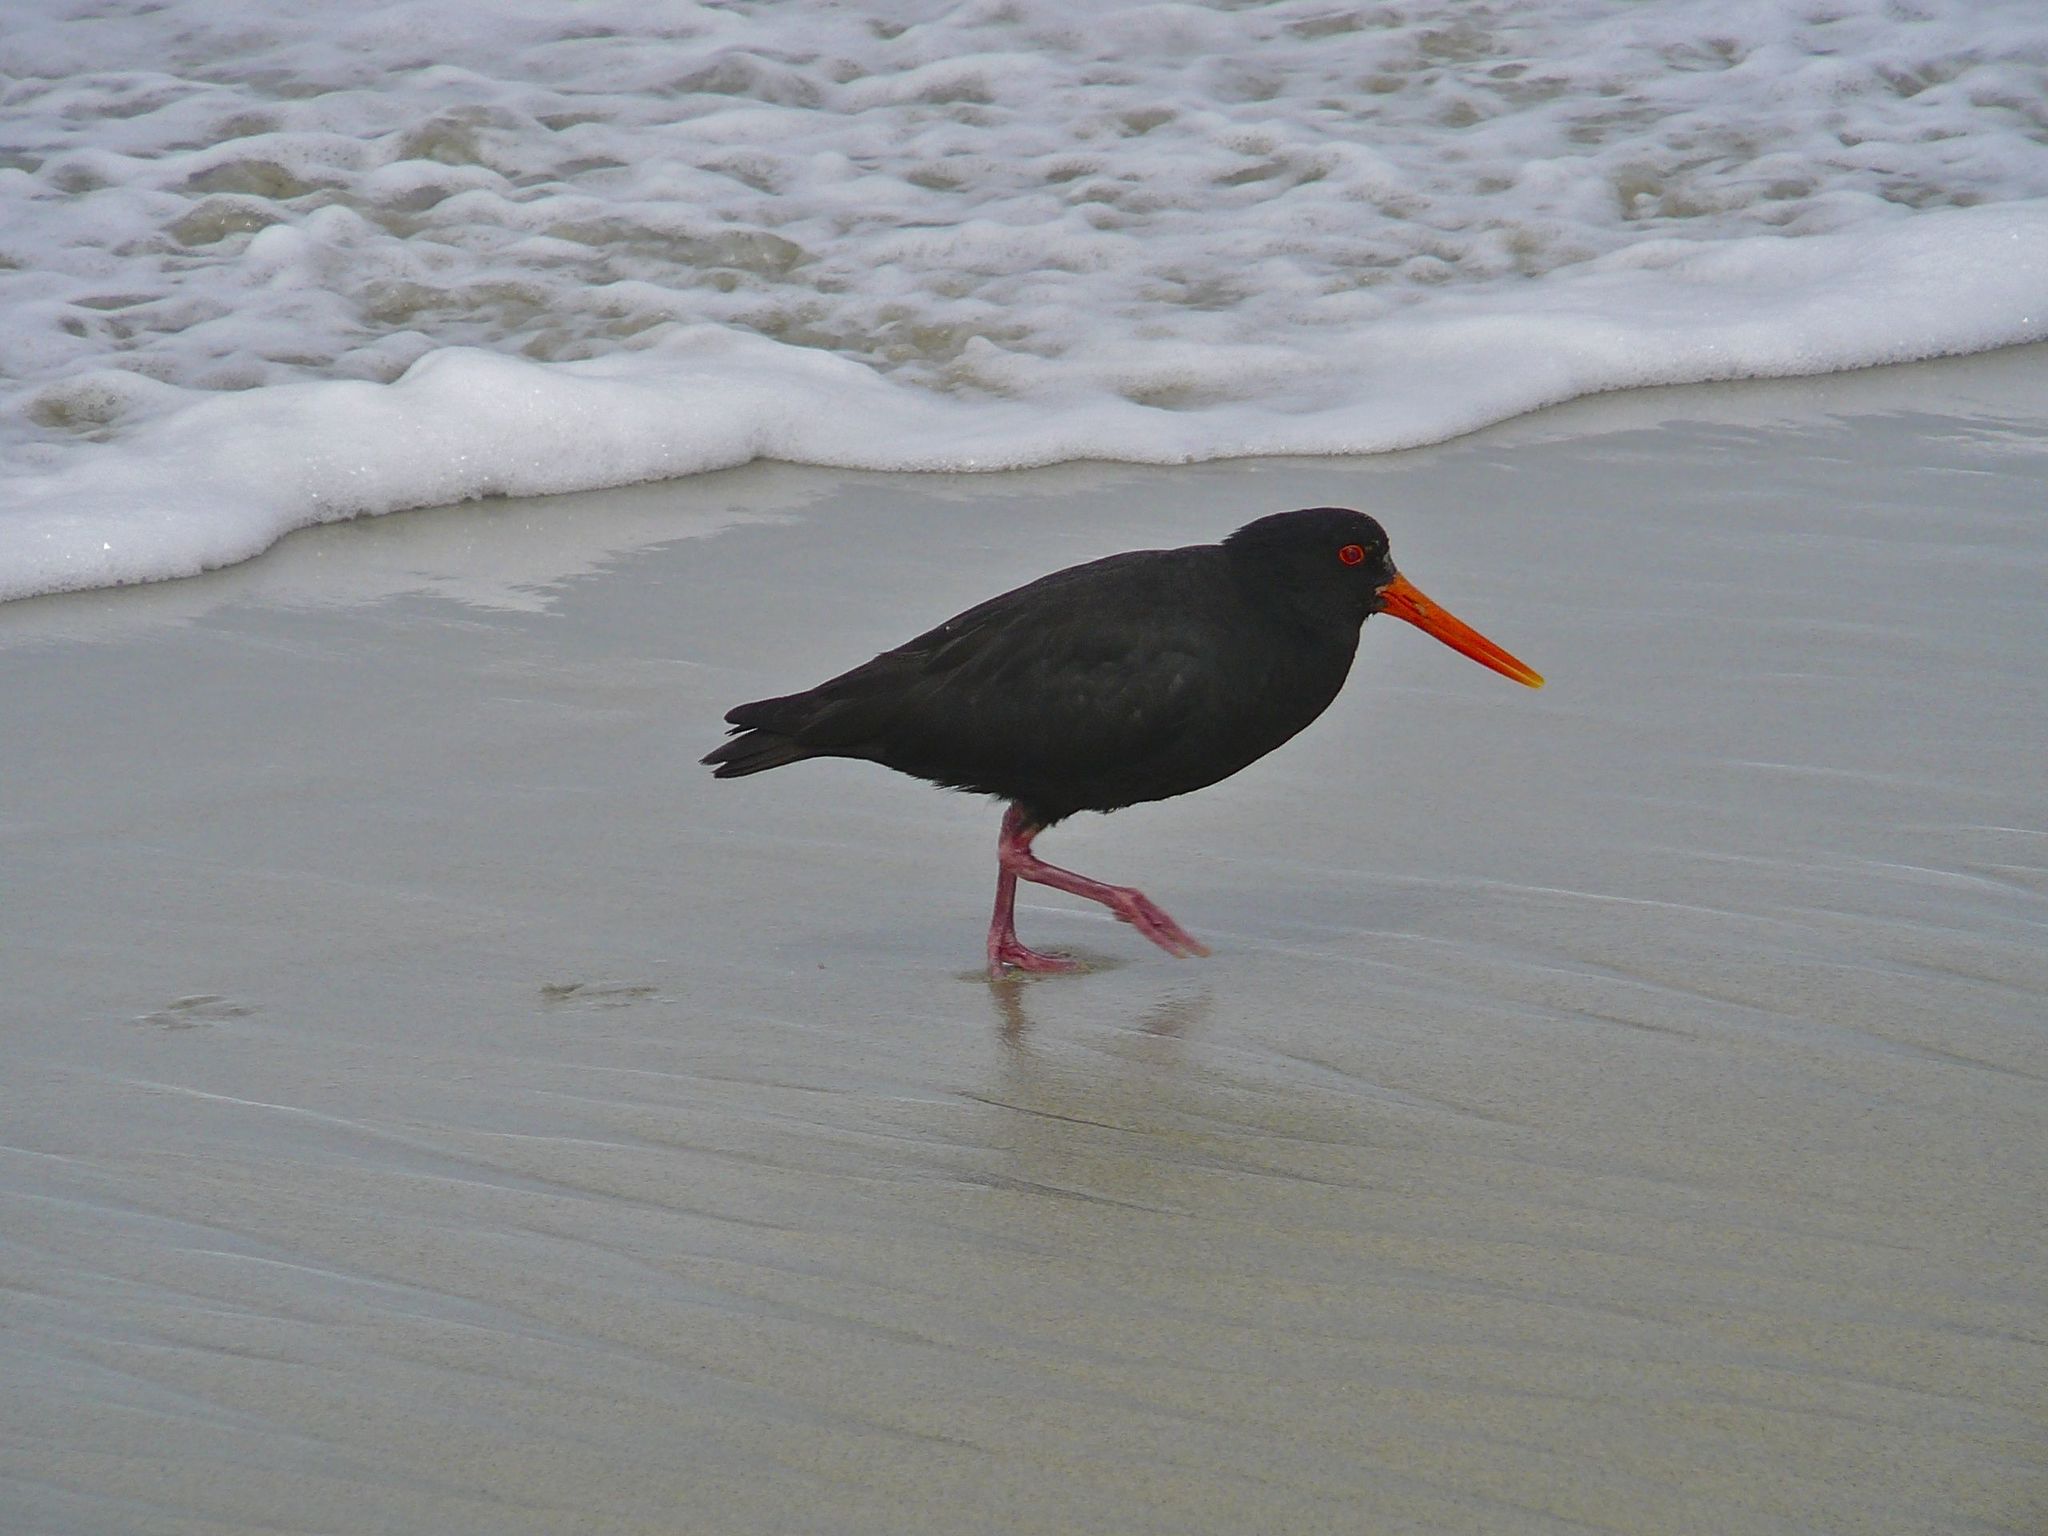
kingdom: Animalia
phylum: Chordata
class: Aves
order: Charadriiformes
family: Haematopodidae
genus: Haematopus
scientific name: Haematopus unicolor
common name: Variable oystercatcher
